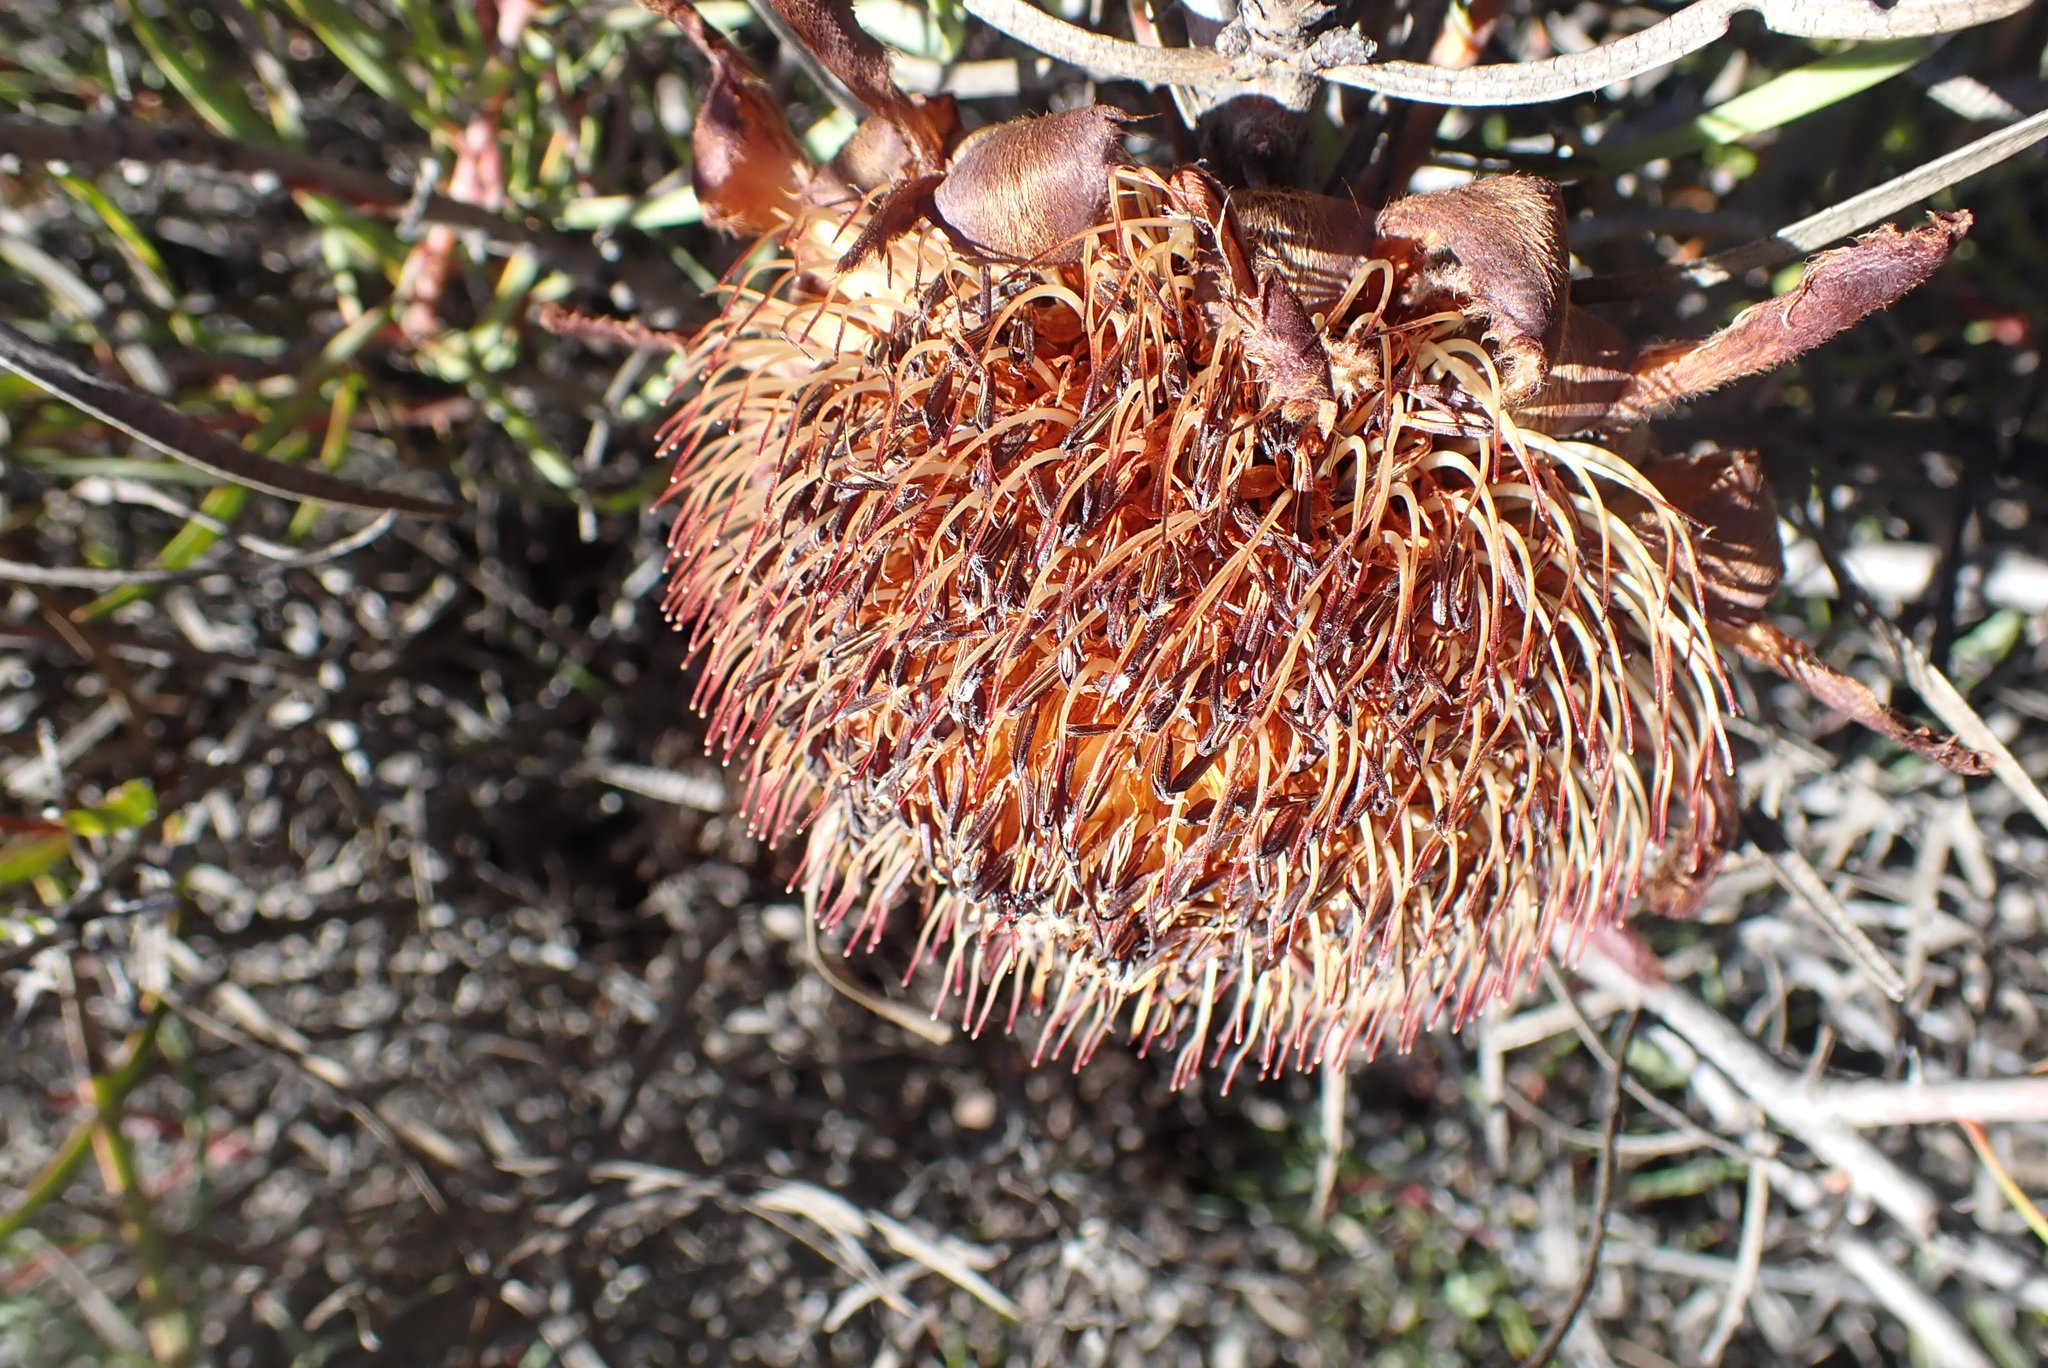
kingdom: Plantae
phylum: Tracheophyta
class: Magnoliopsida
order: Proteales
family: Proteaceae
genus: Protea
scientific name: Protea humiflora
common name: Patent-leaf sugarbush
